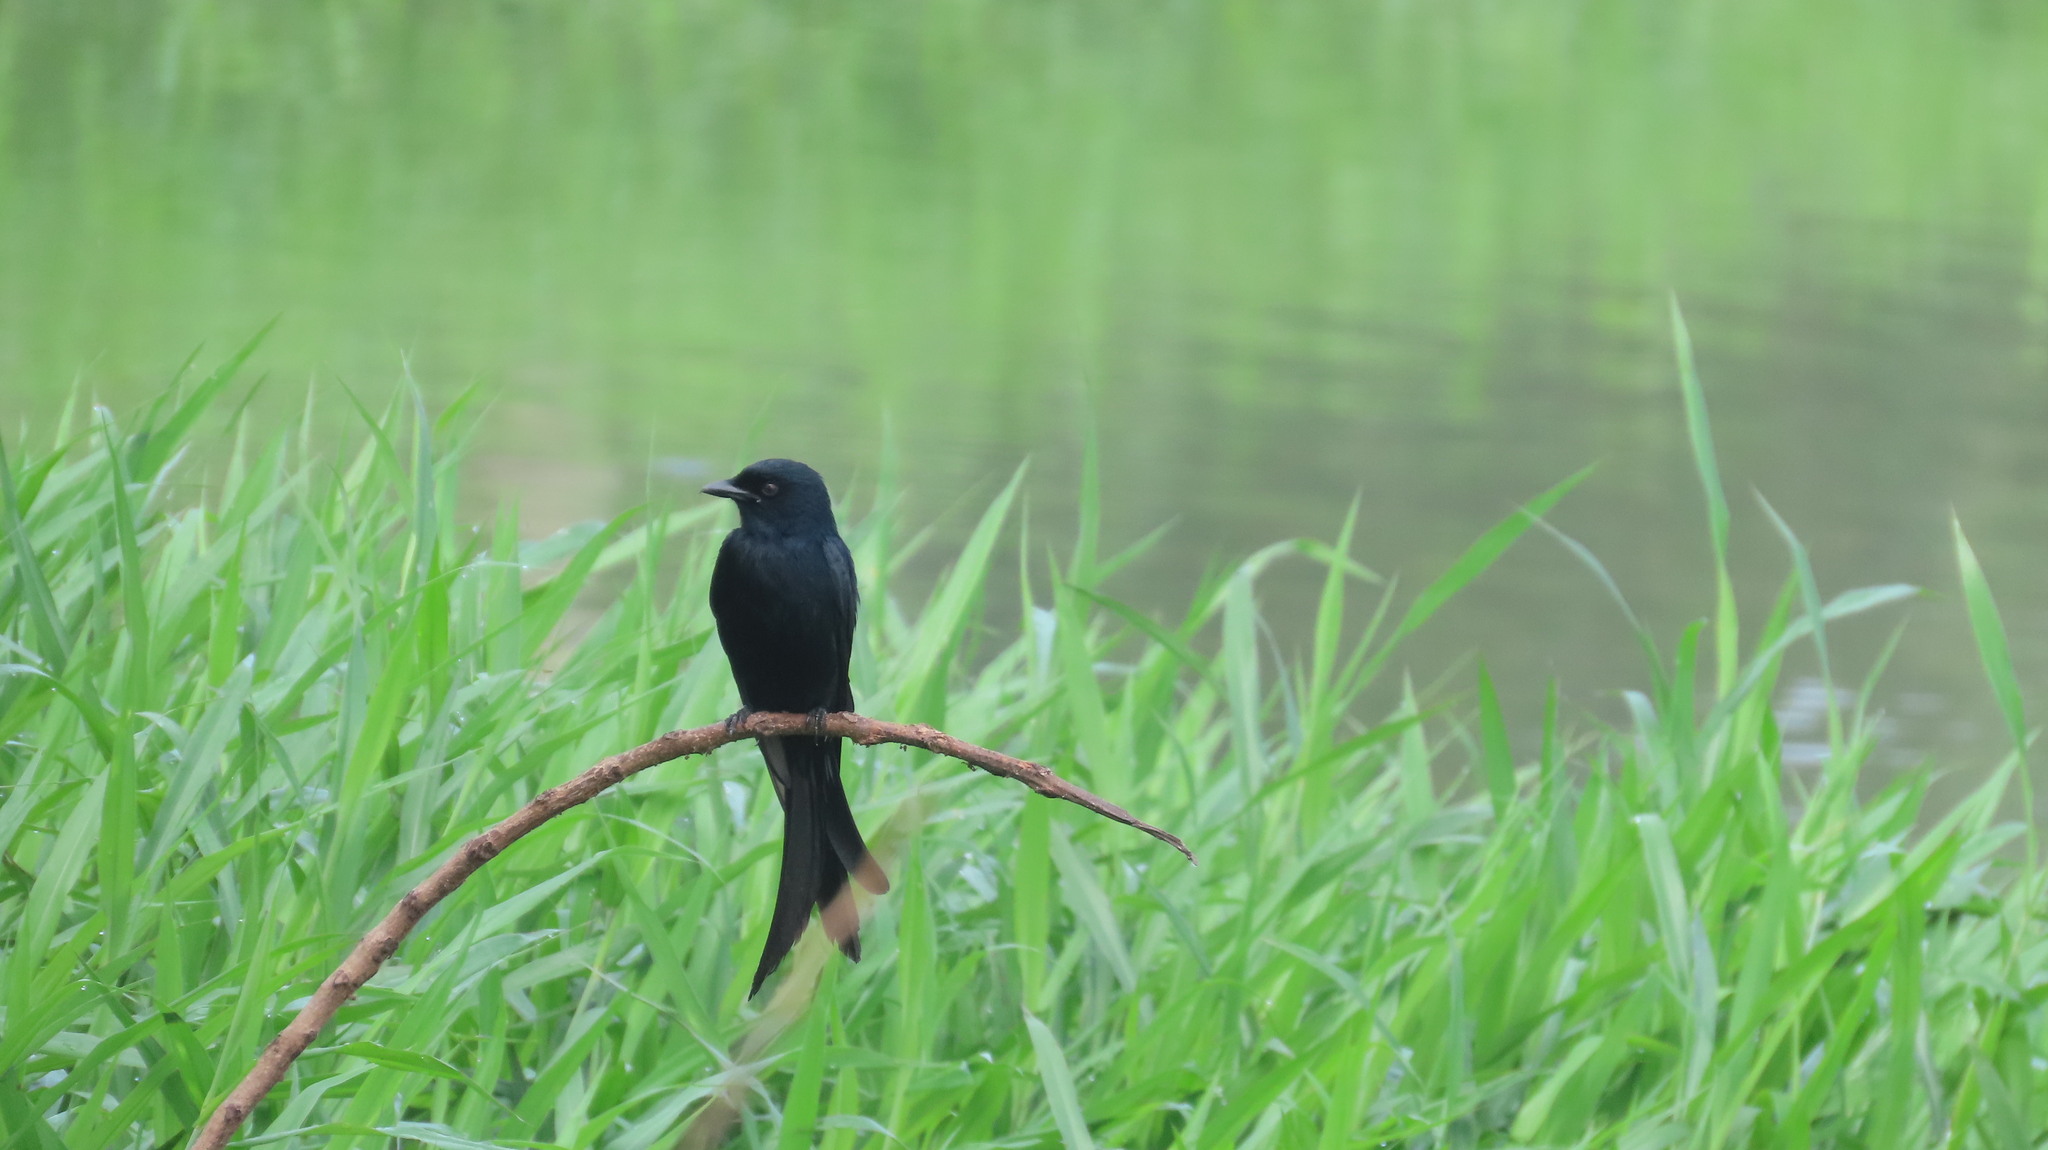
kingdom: Animalia
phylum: Chordata
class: Aves
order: Passeriformes
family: Dicruridae
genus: Dicrurus
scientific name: Dicrurus macrocercus
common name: Black drongo
